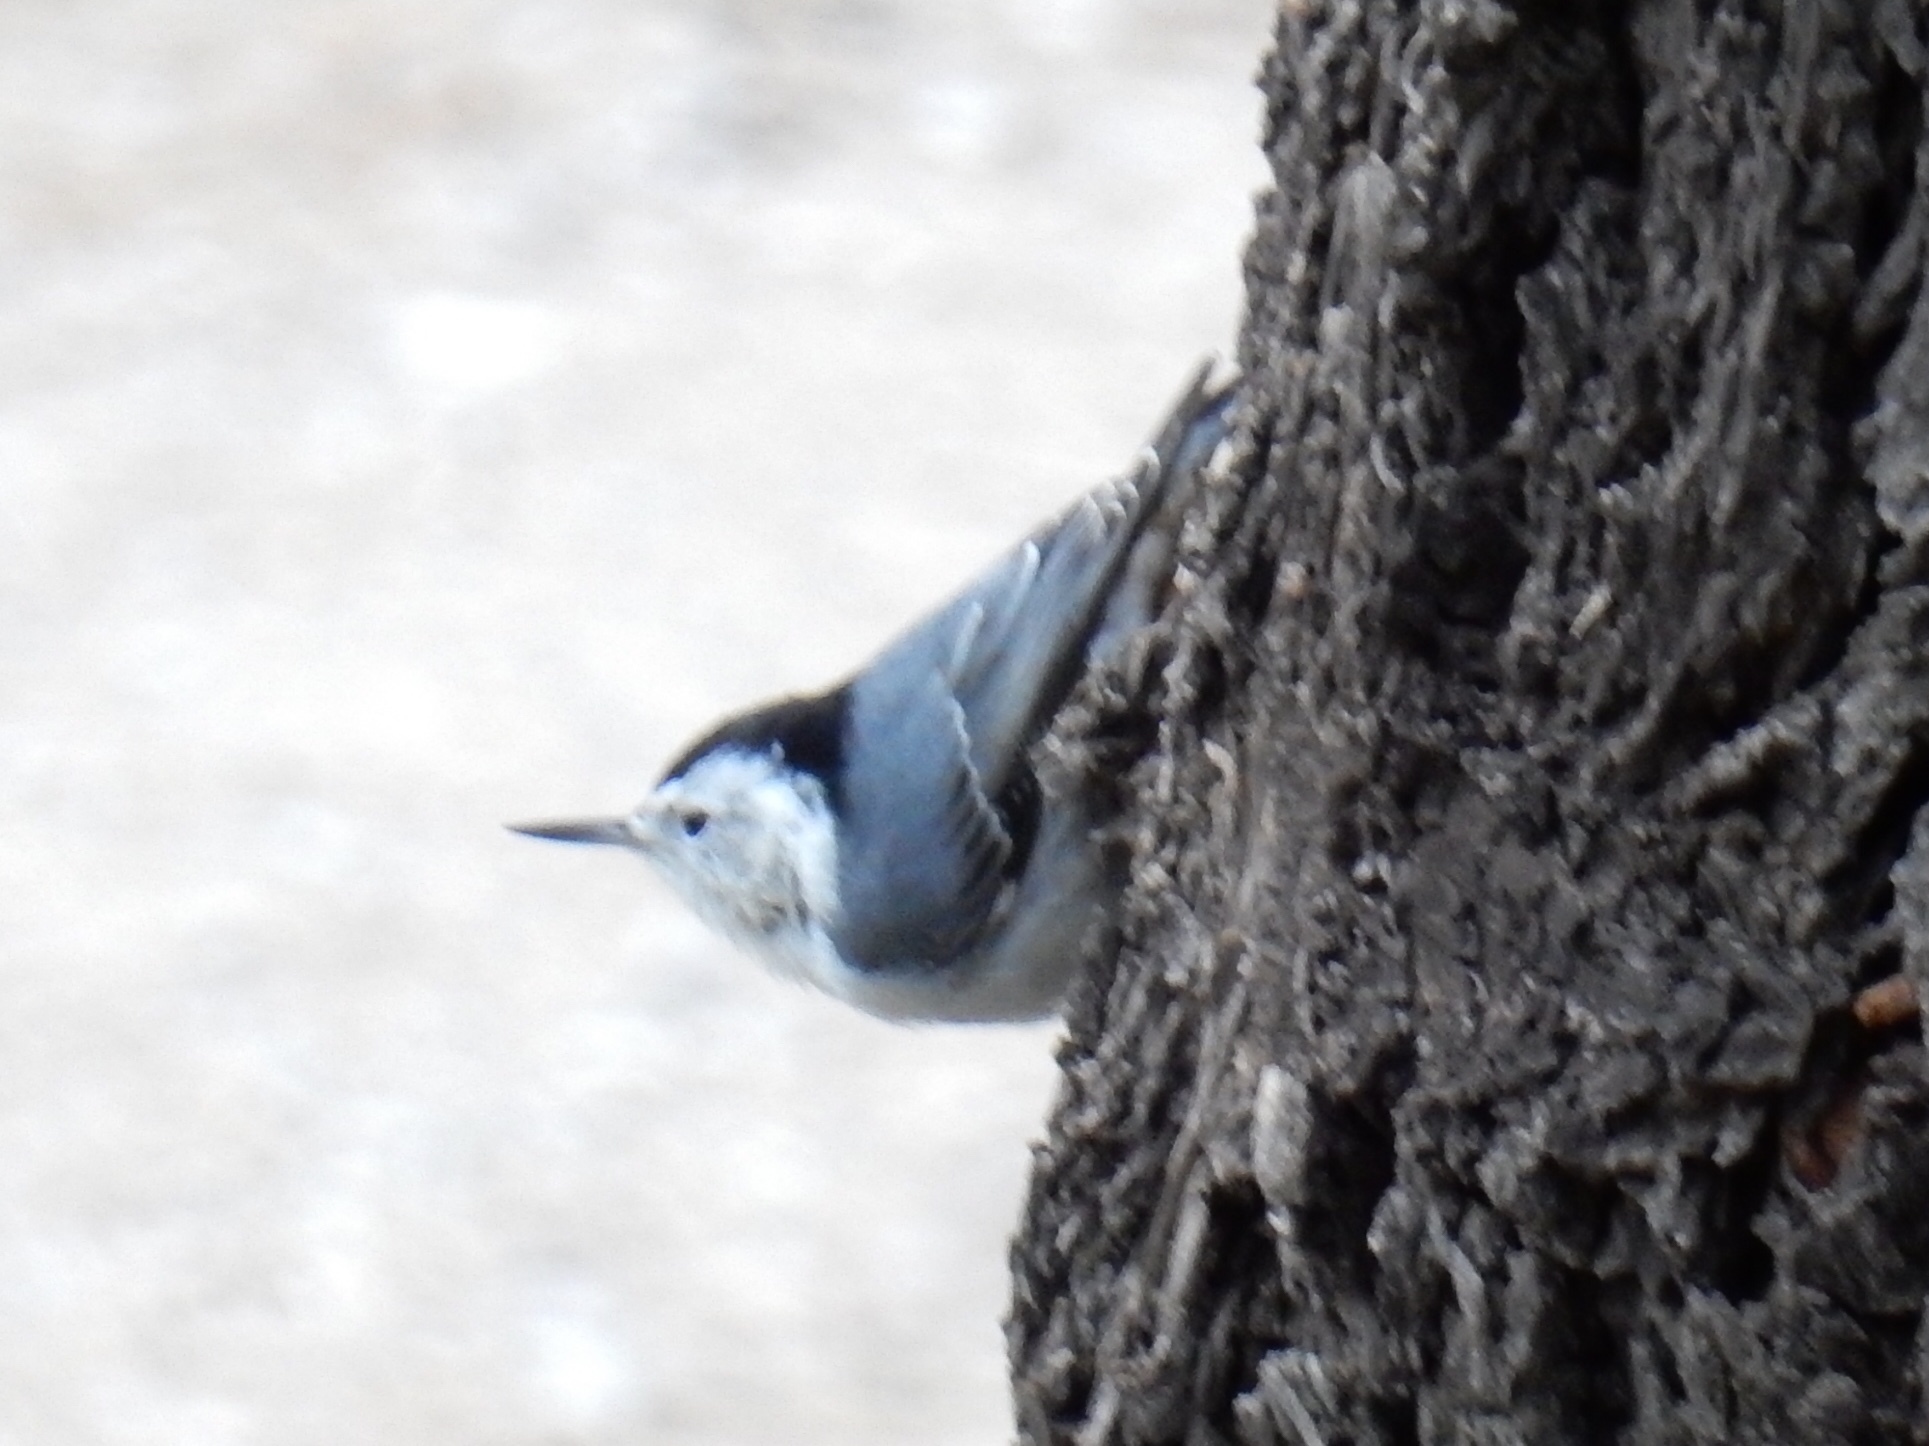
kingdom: Animalia
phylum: Chordata
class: Aves
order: Passeriformes
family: Sittidae
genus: Sitta
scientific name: Sitta carolinensis
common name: White-breasted nuthatch
